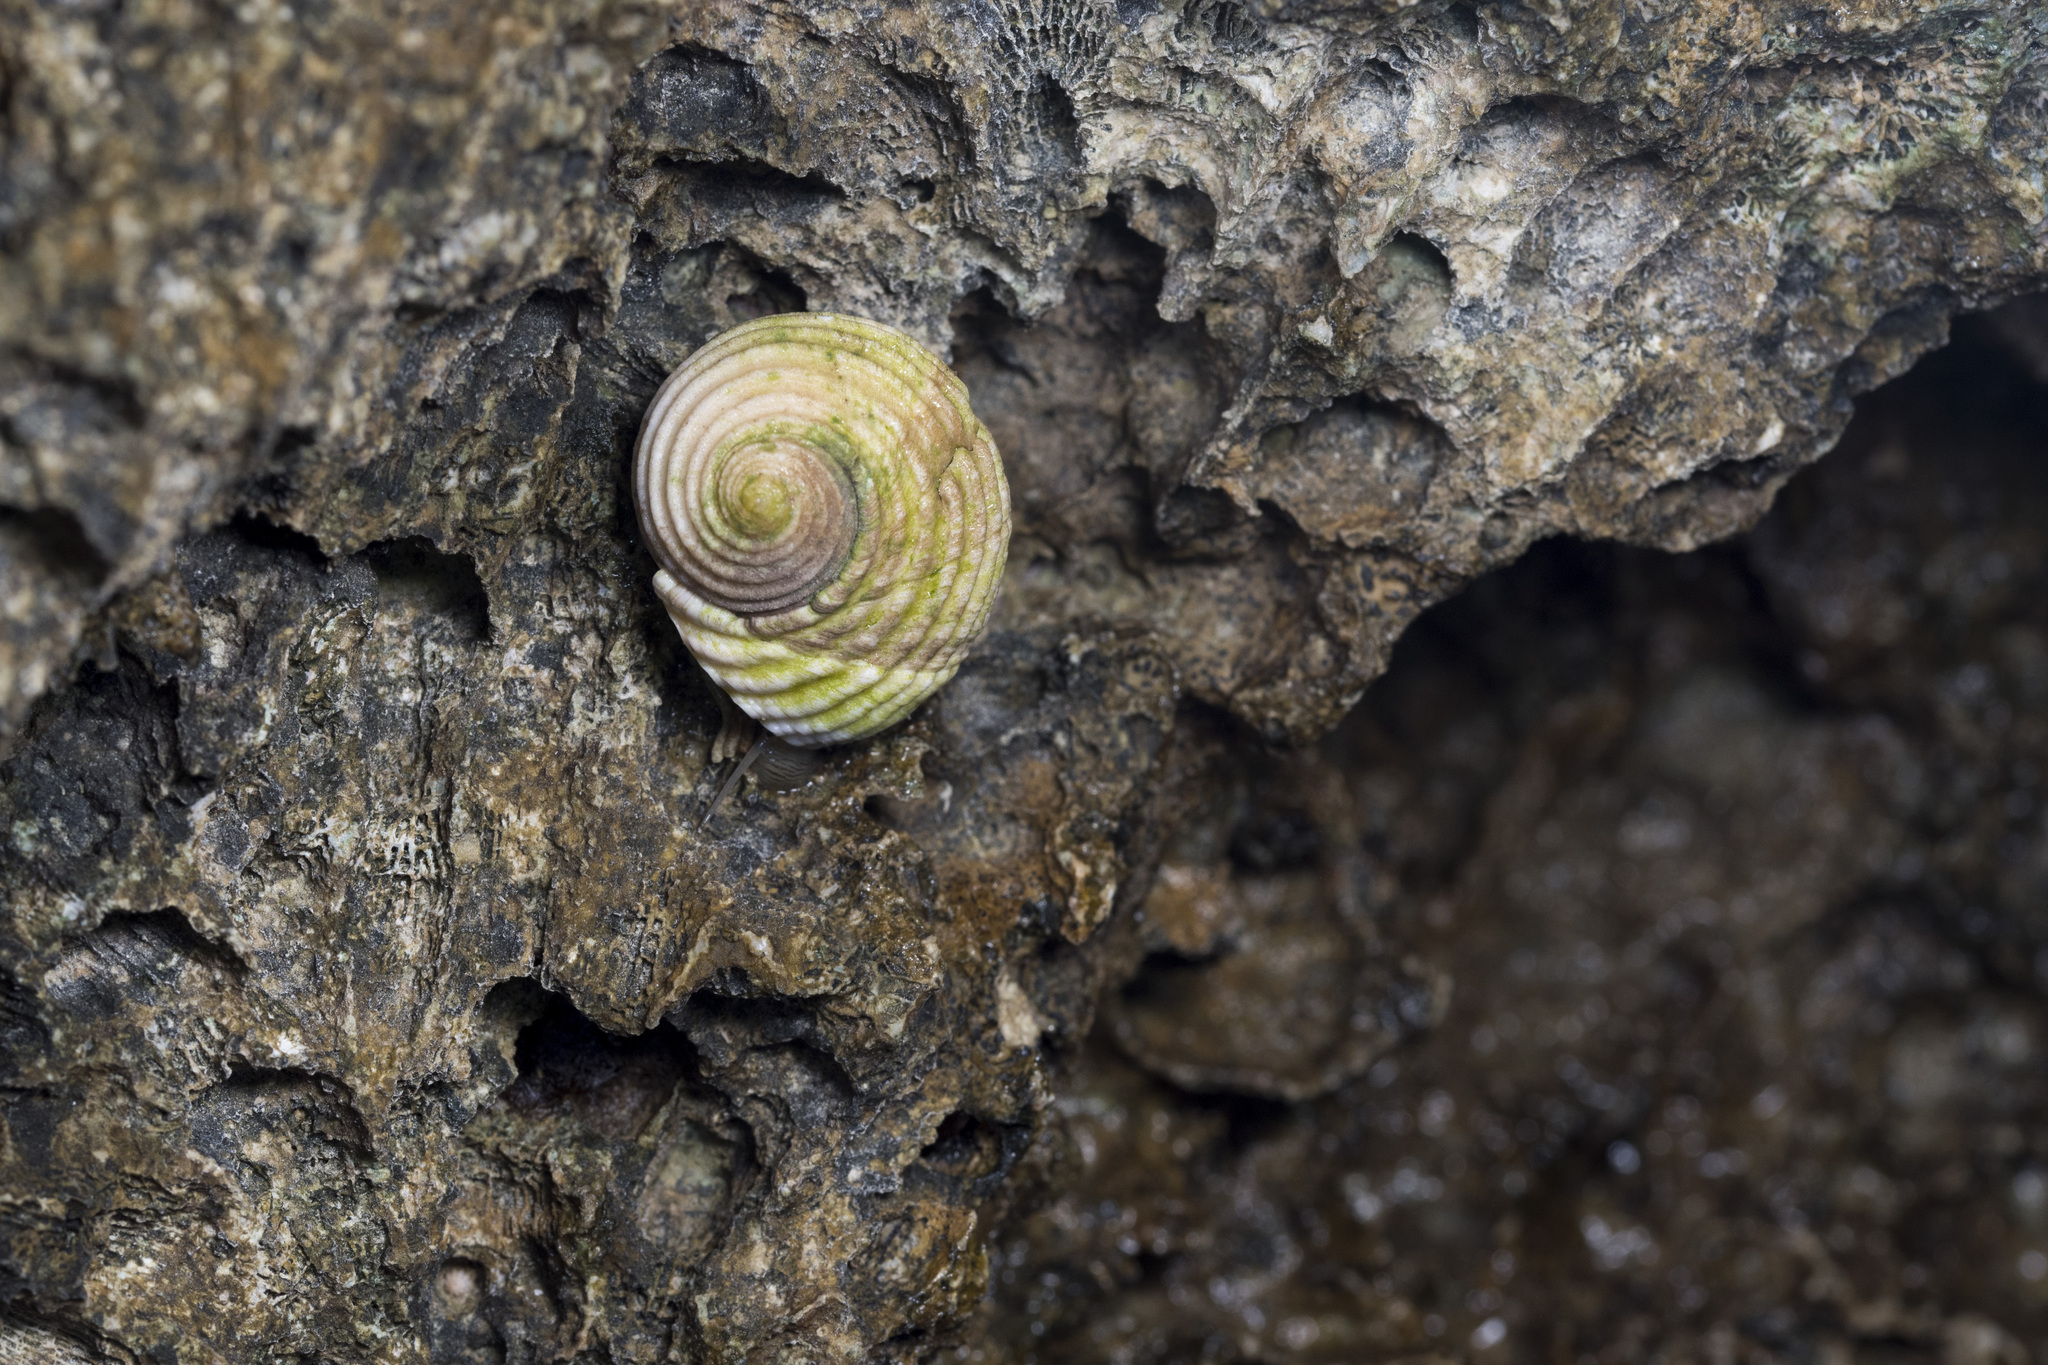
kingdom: Animalia
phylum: Mollusca
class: Gastropoda
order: Cycloneritida
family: Neritidae
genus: Nerita
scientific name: Nerita plicata
